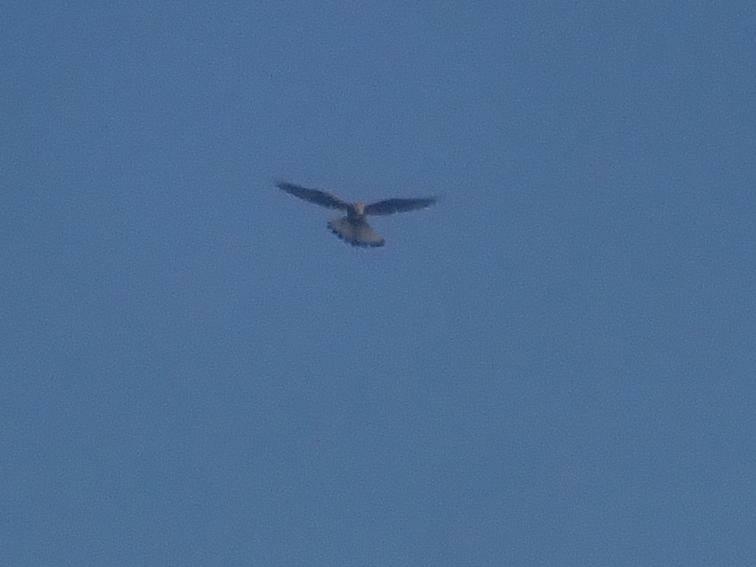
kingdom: Animalia
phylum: Chordata
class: Aves
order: Falconiformes
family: Falconidae
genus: Falco
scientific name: Falco tinnunculus
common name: Common kestrel
